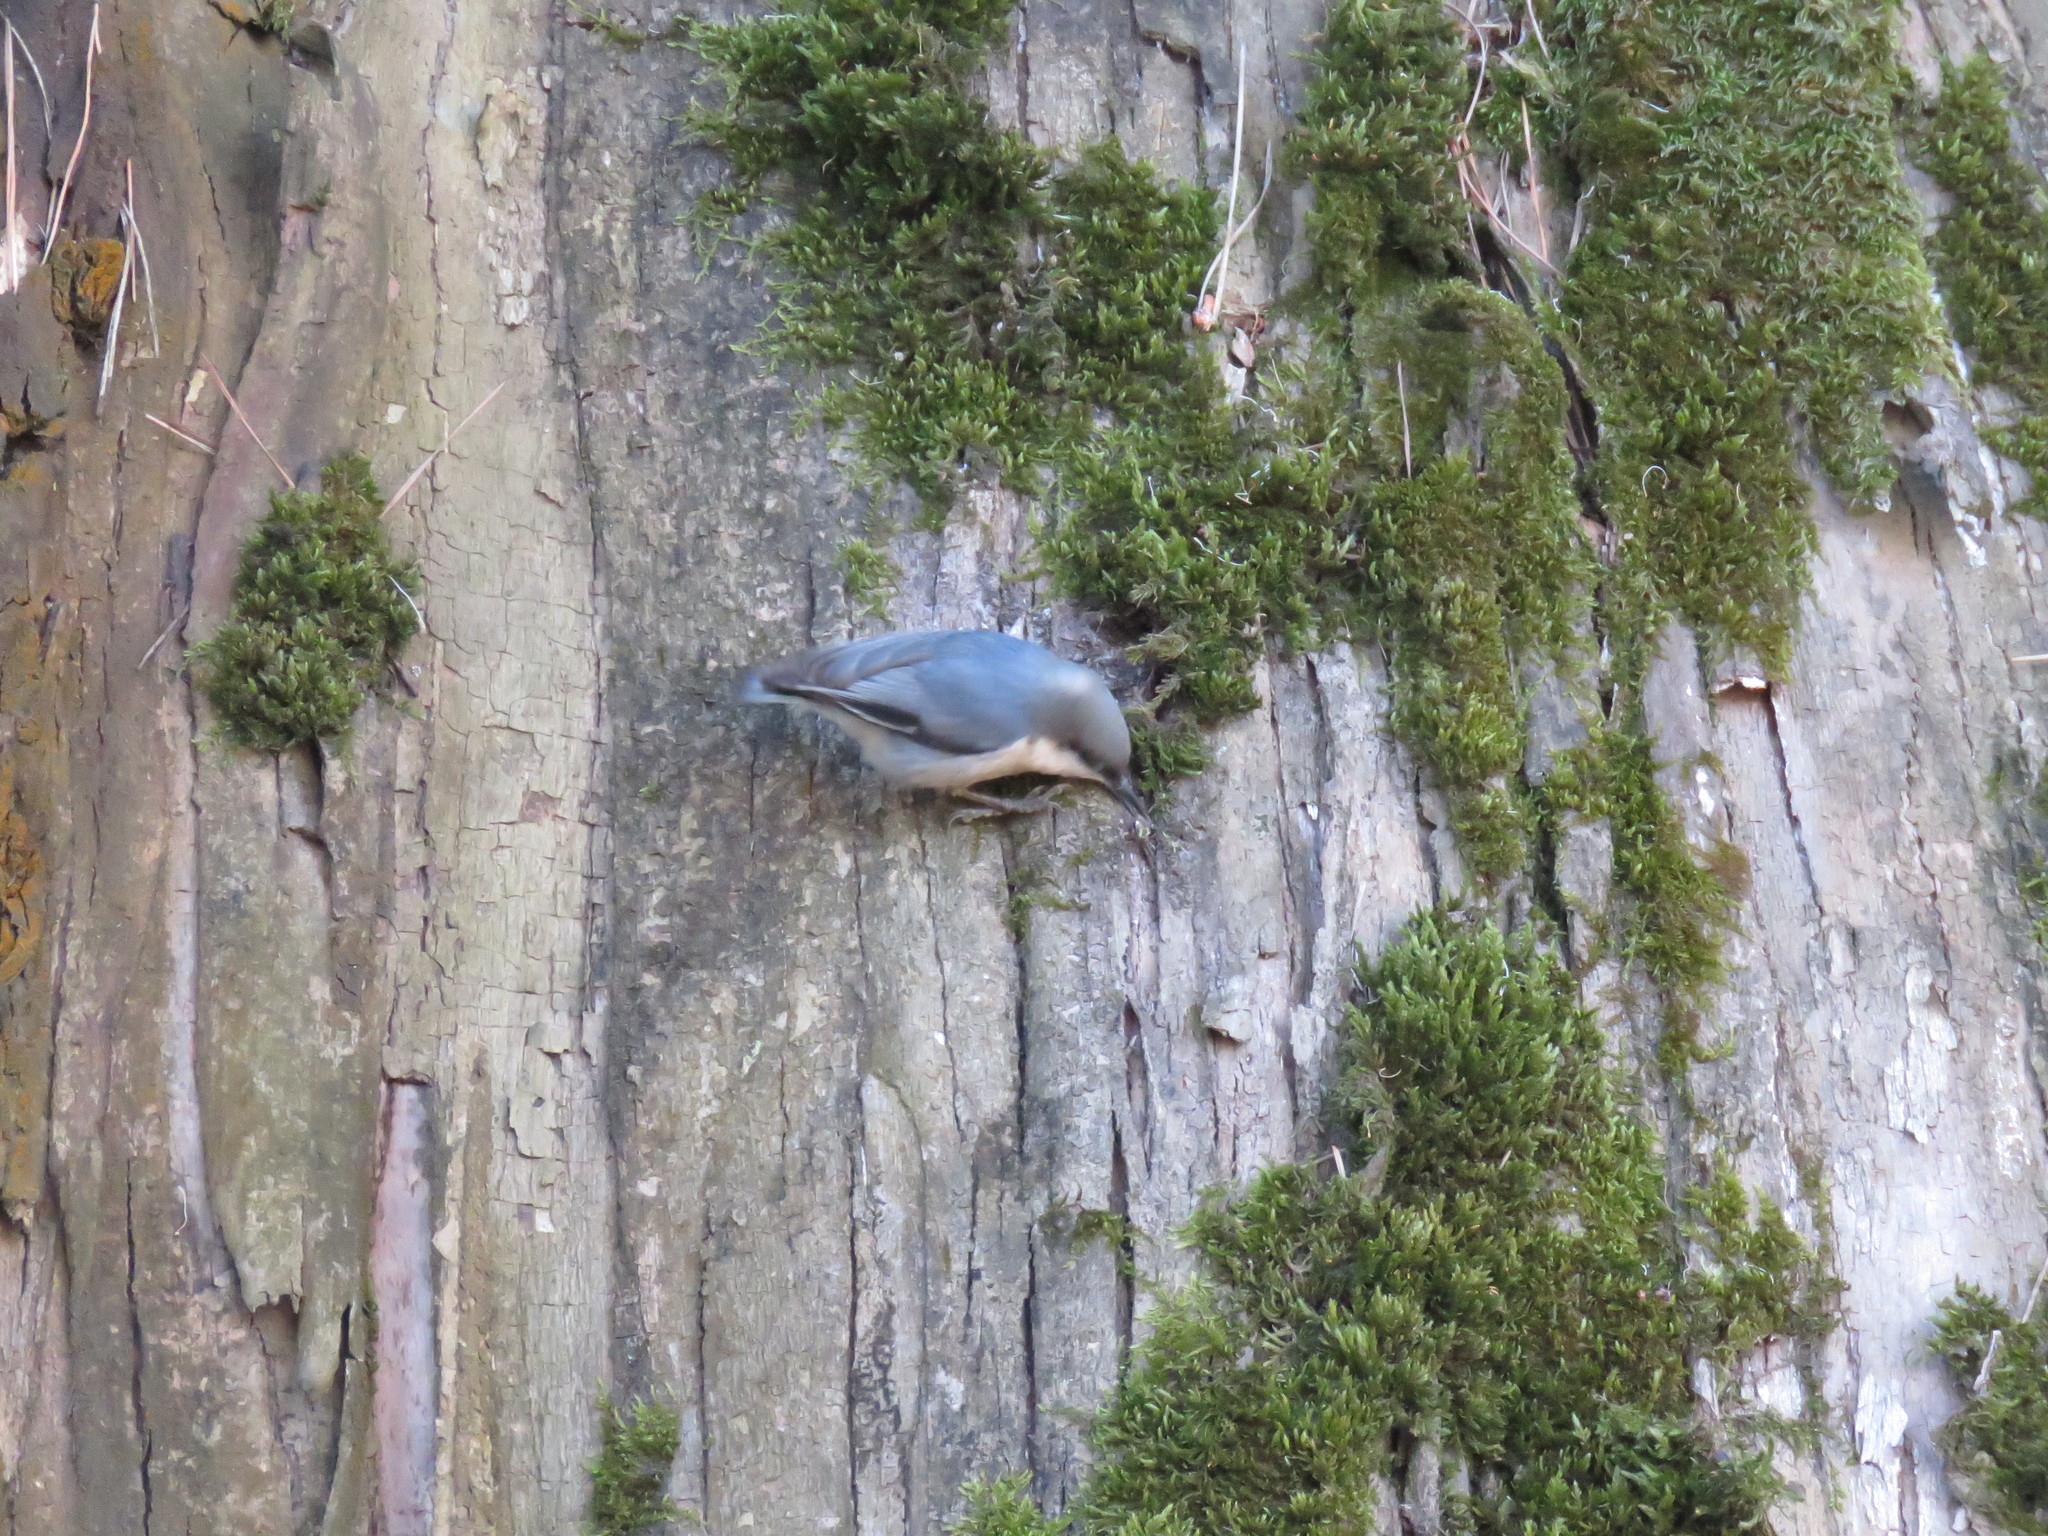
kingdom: Animalia
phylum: Chordata
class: Aves
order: Passeriformes
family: Sittidae
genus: Sitta
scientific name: Sitta pygmaea
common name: Pygmy nuthatch
